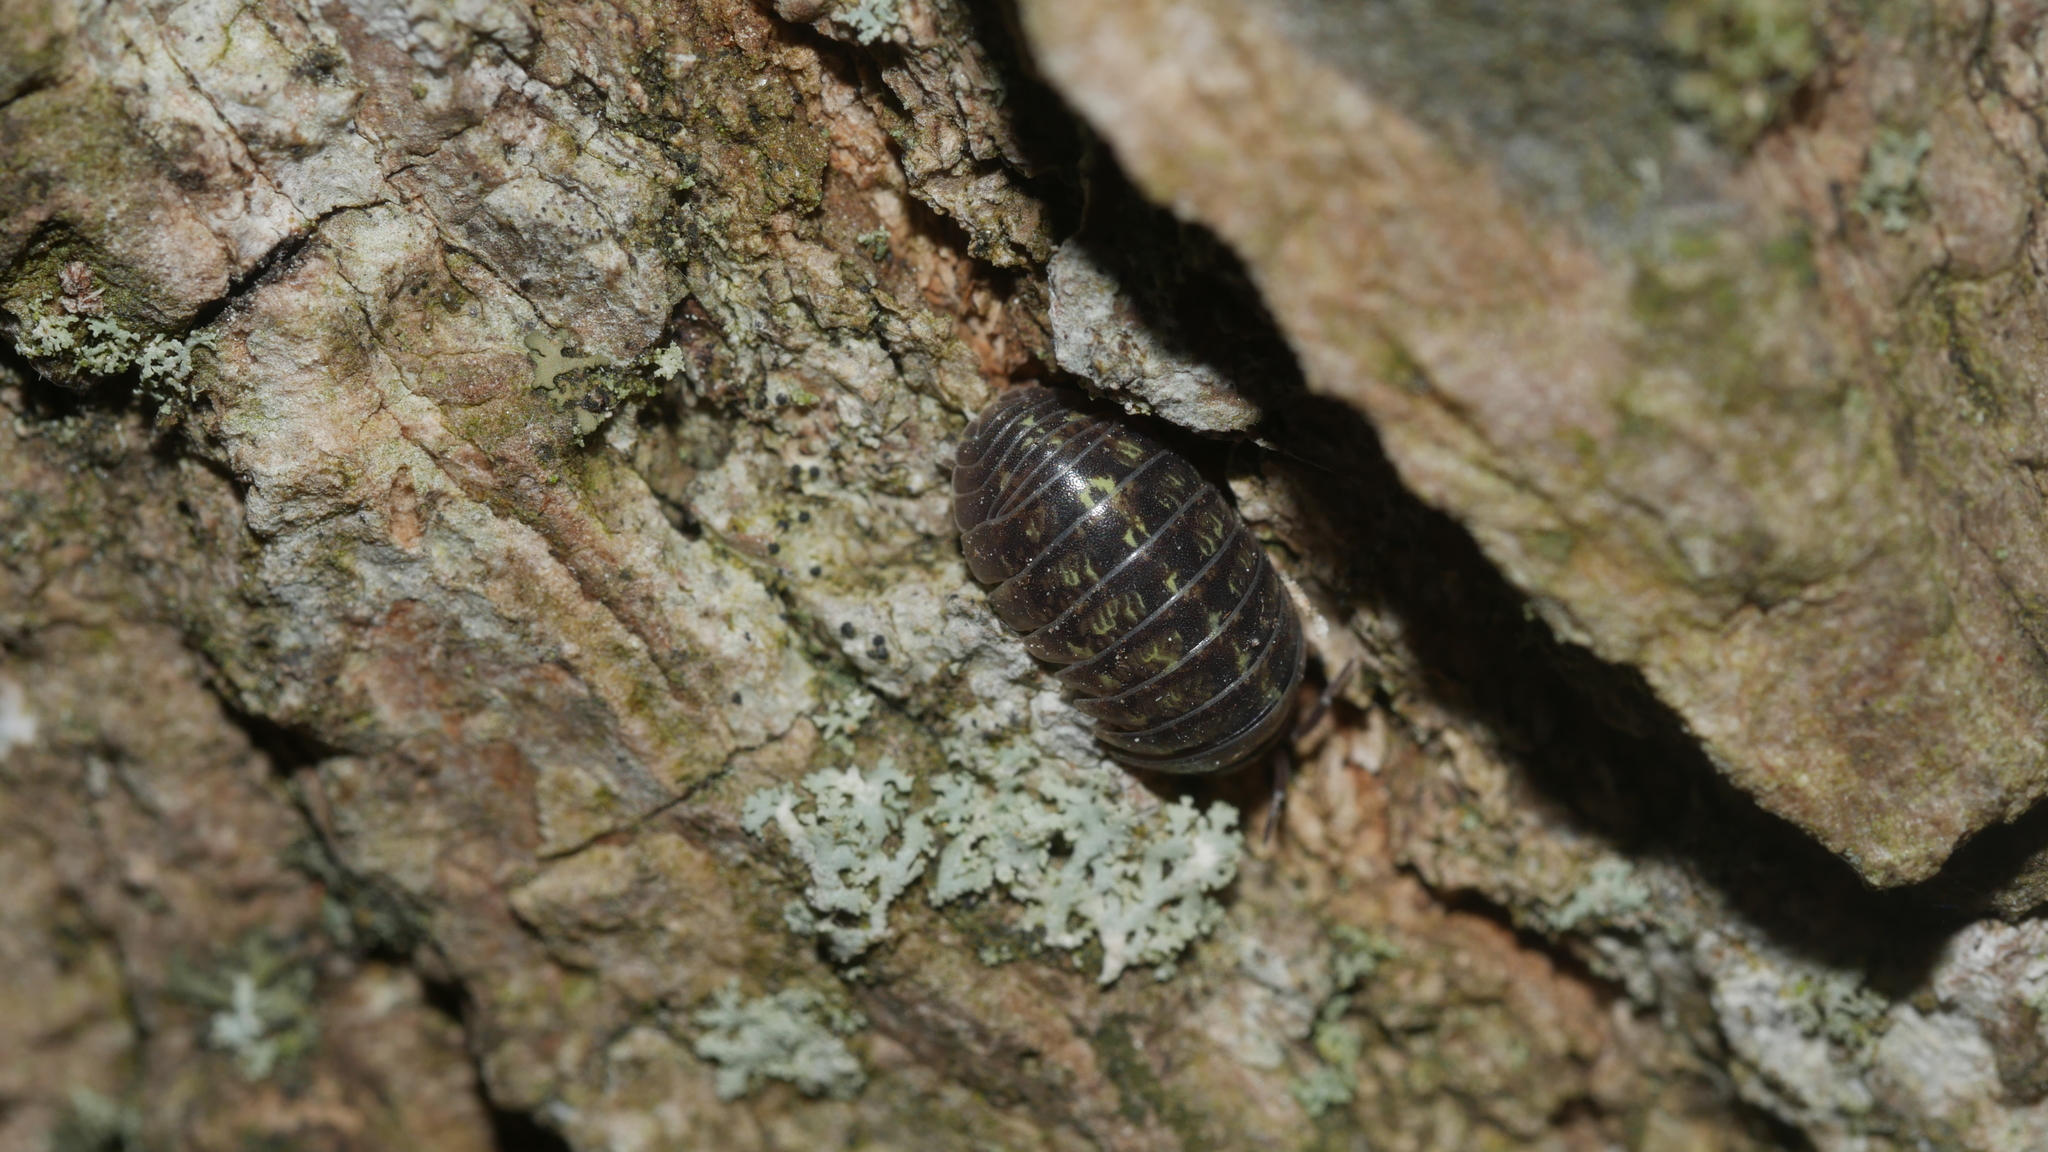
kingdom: Animalia
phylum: Arthropoda
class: Malacostraca
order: Isopoda
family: Armadillidiidae
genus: Armadillidium
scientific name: Armadillidium vulgare
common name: Common pill woodlouse
